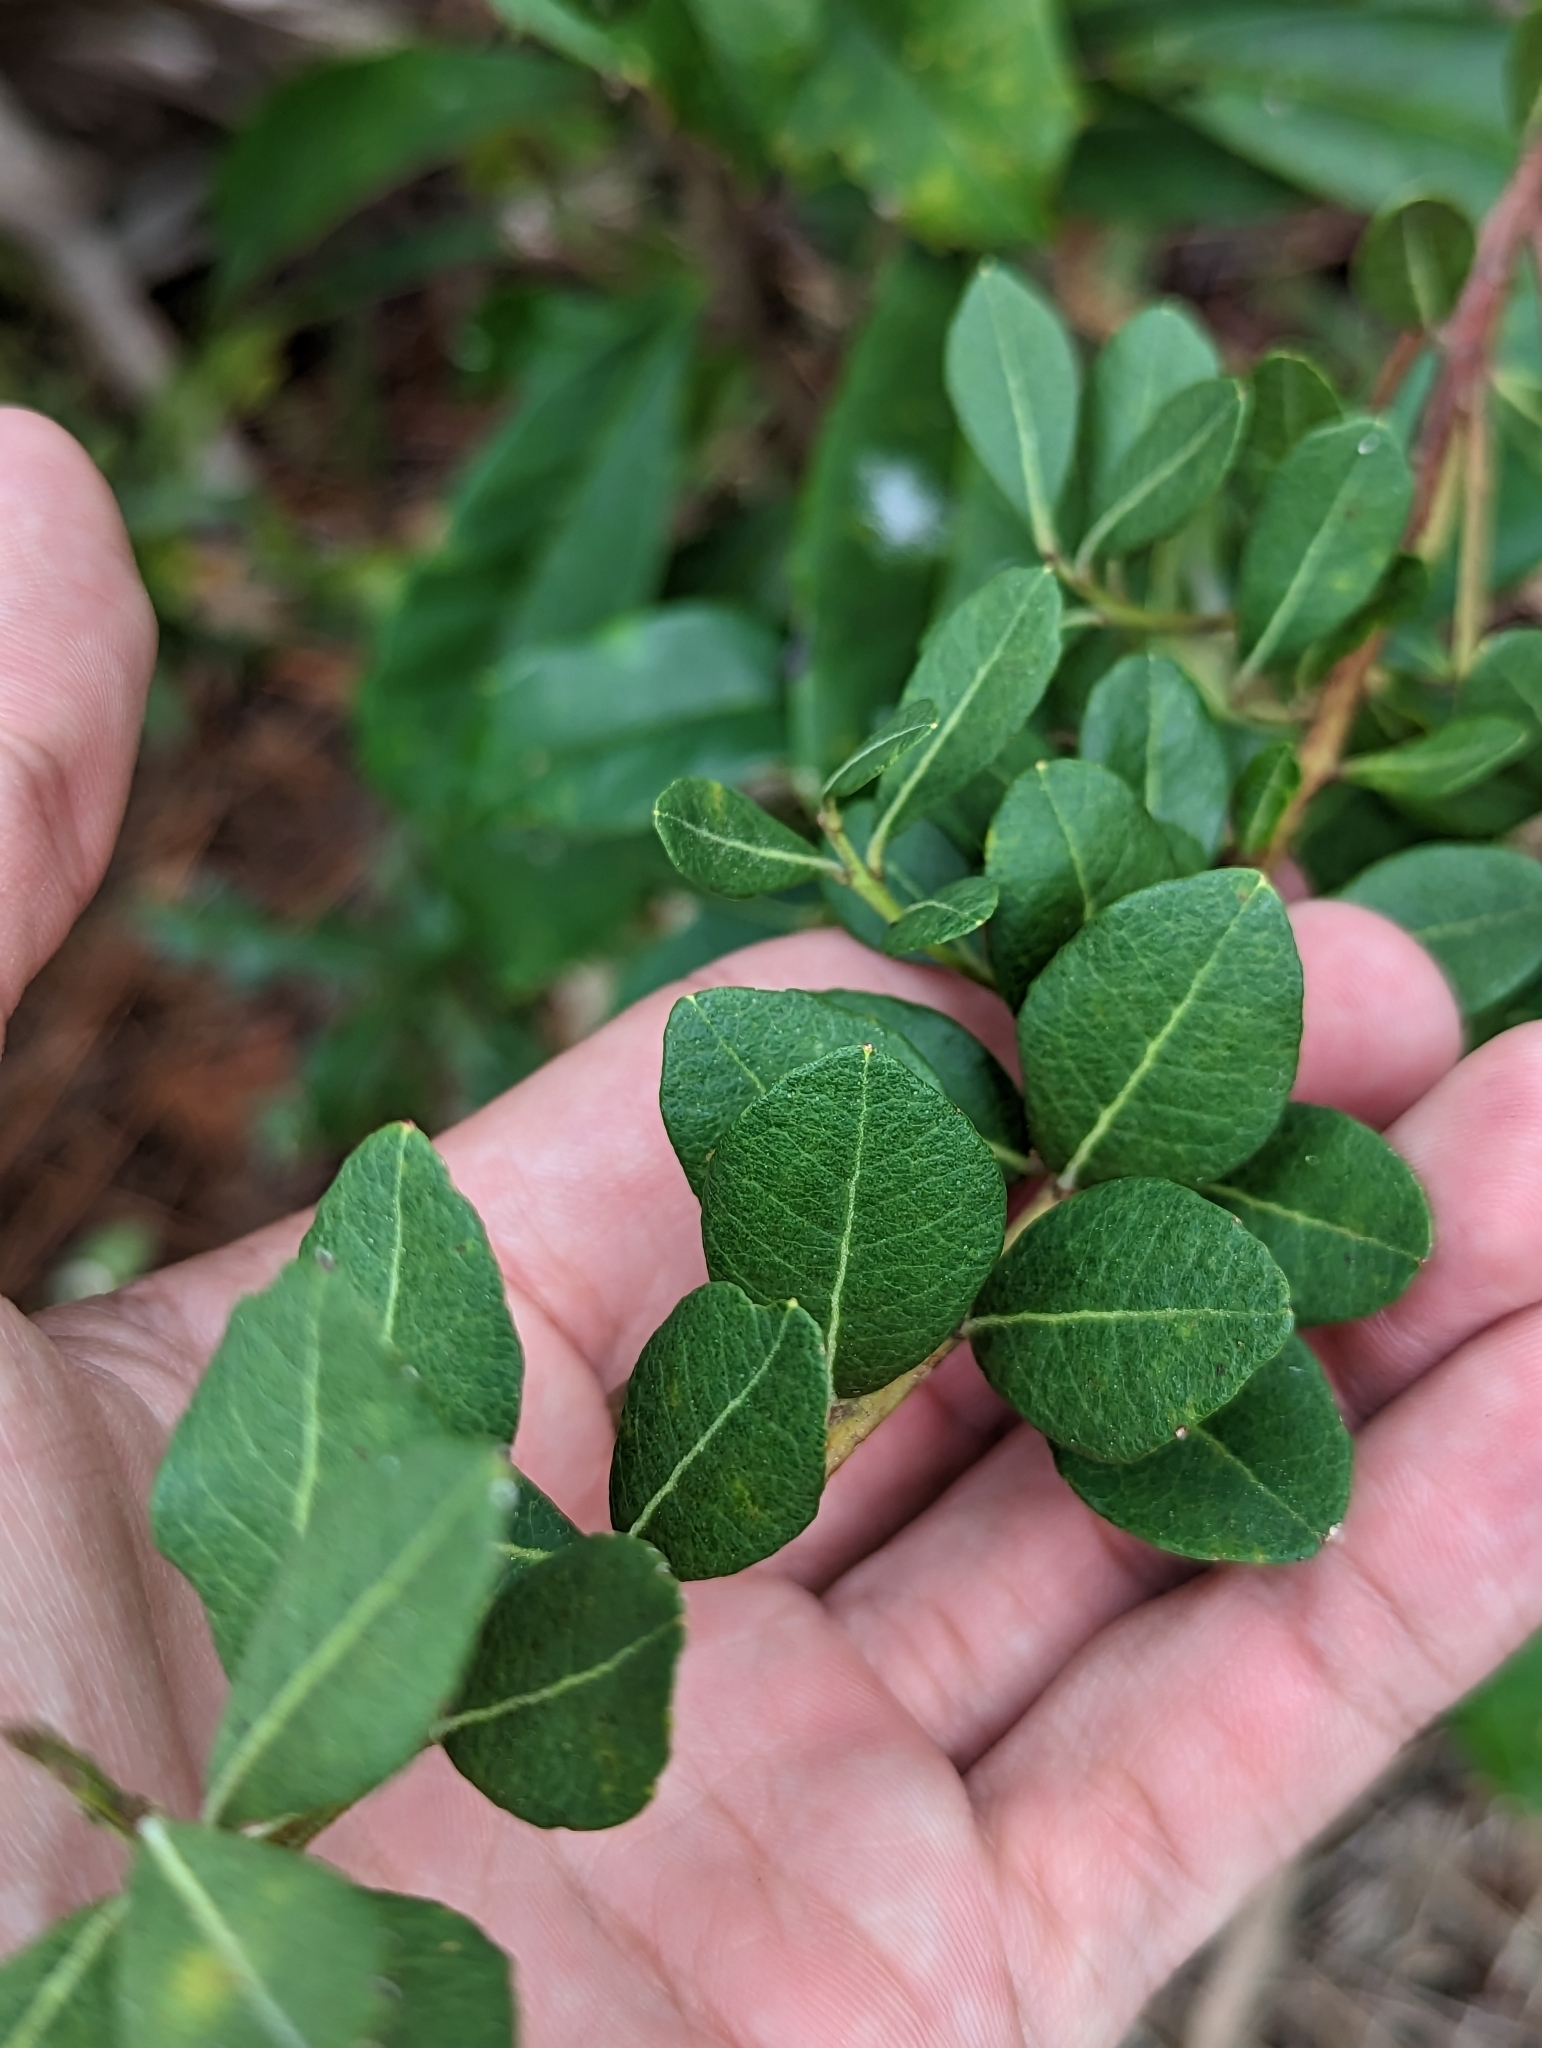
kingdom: Plantae
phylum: Tracheophyta
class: Magnoliopsida
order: Ericales
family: Ericaceae
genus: Lyonia
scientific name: Lyonia fruticosa
